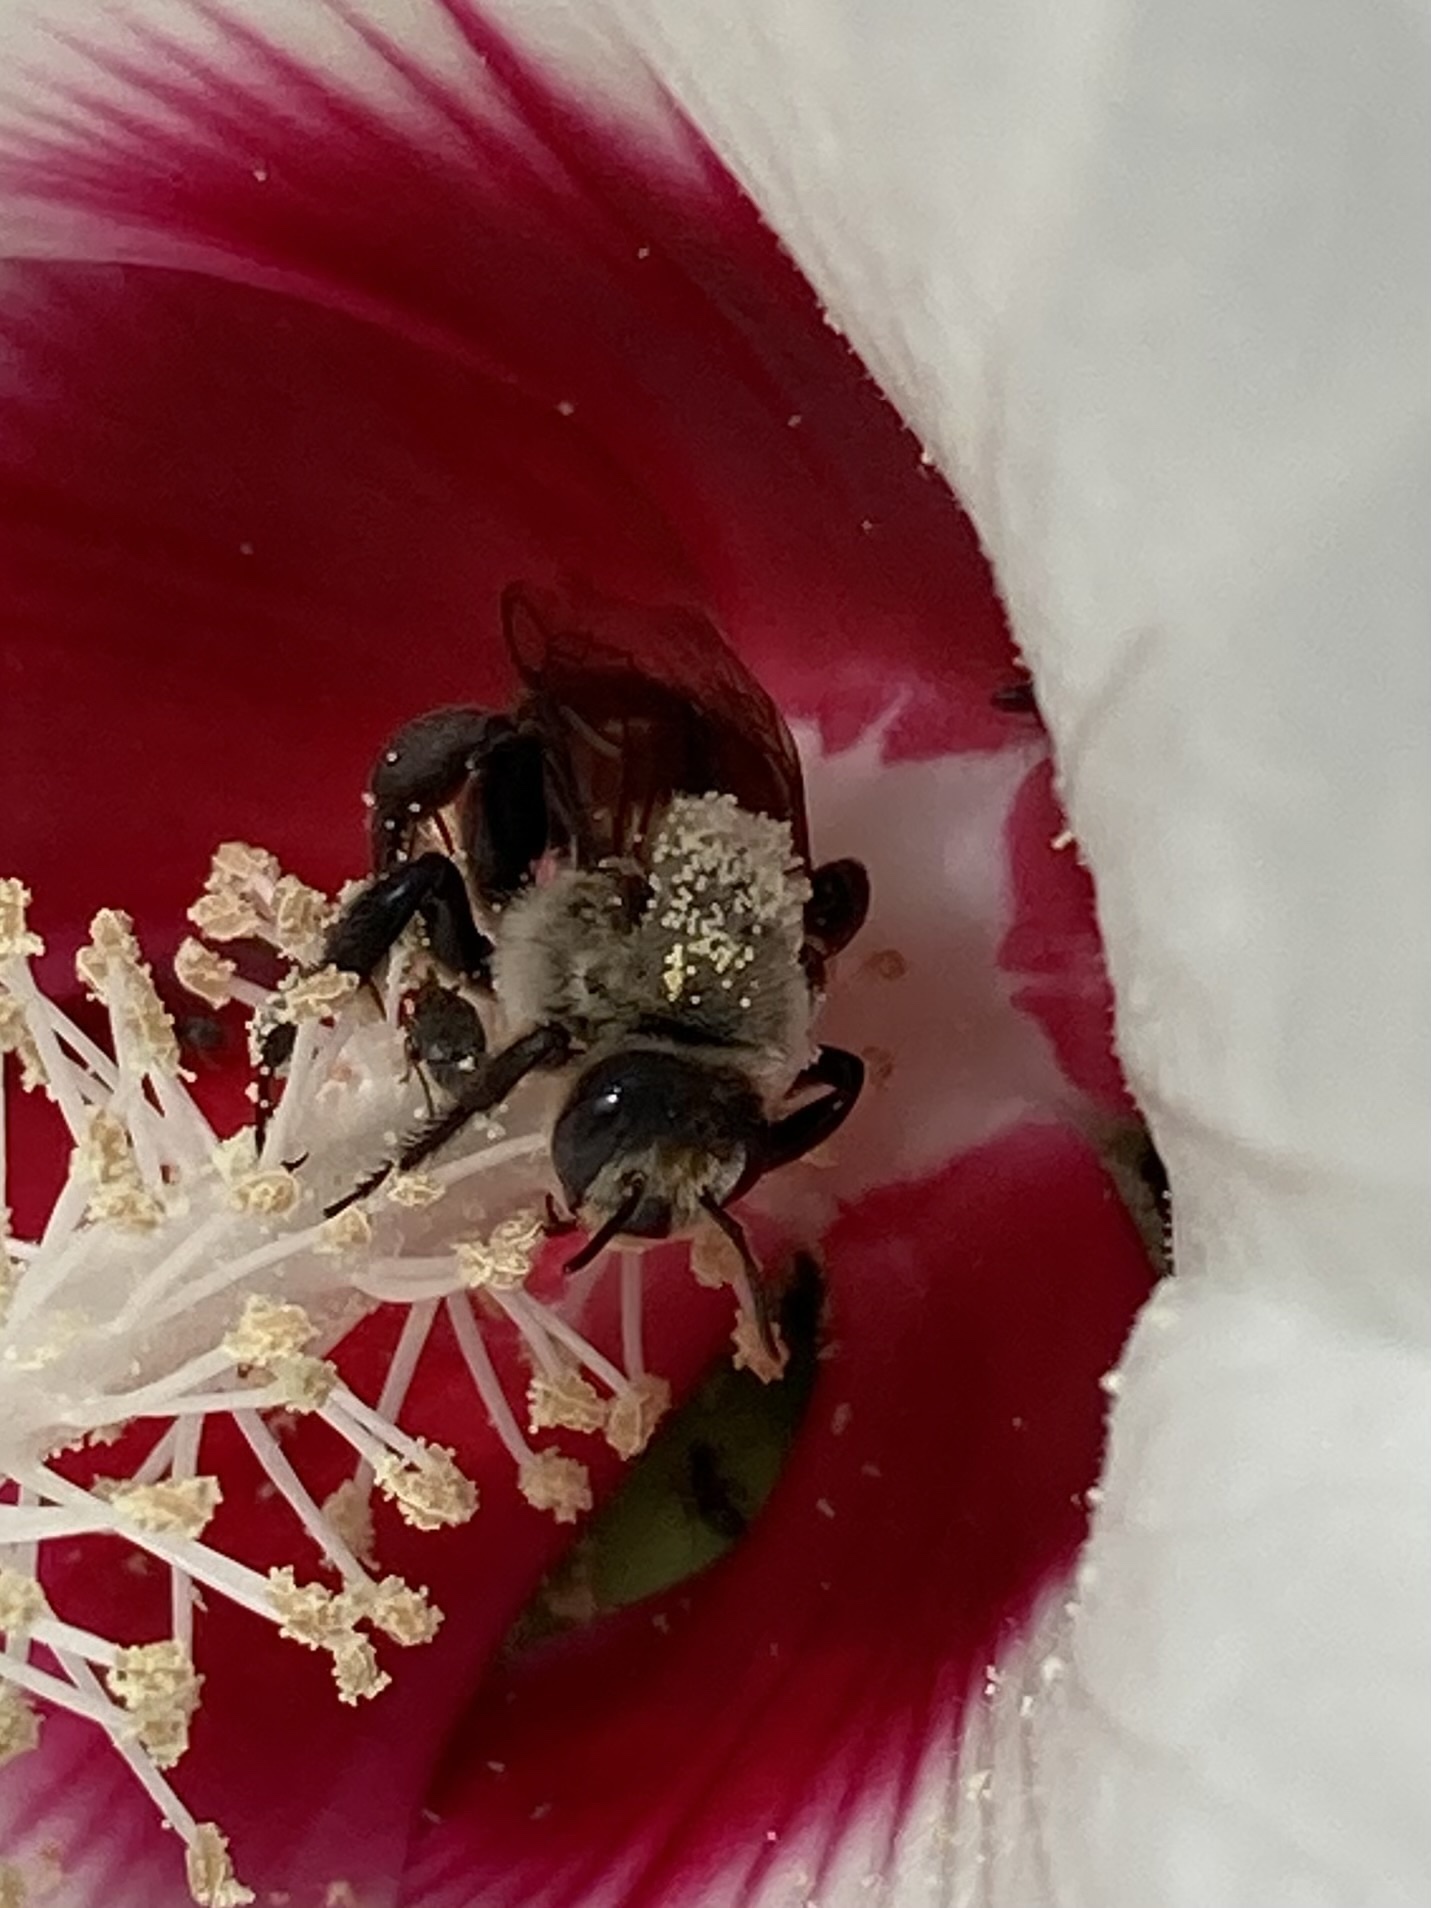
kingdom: Animalia
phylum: Arthropoda
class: Insecta
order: Hymenoptera
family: Apidae
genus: Ptilothrix
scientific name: Ptilothrix bombiformis
